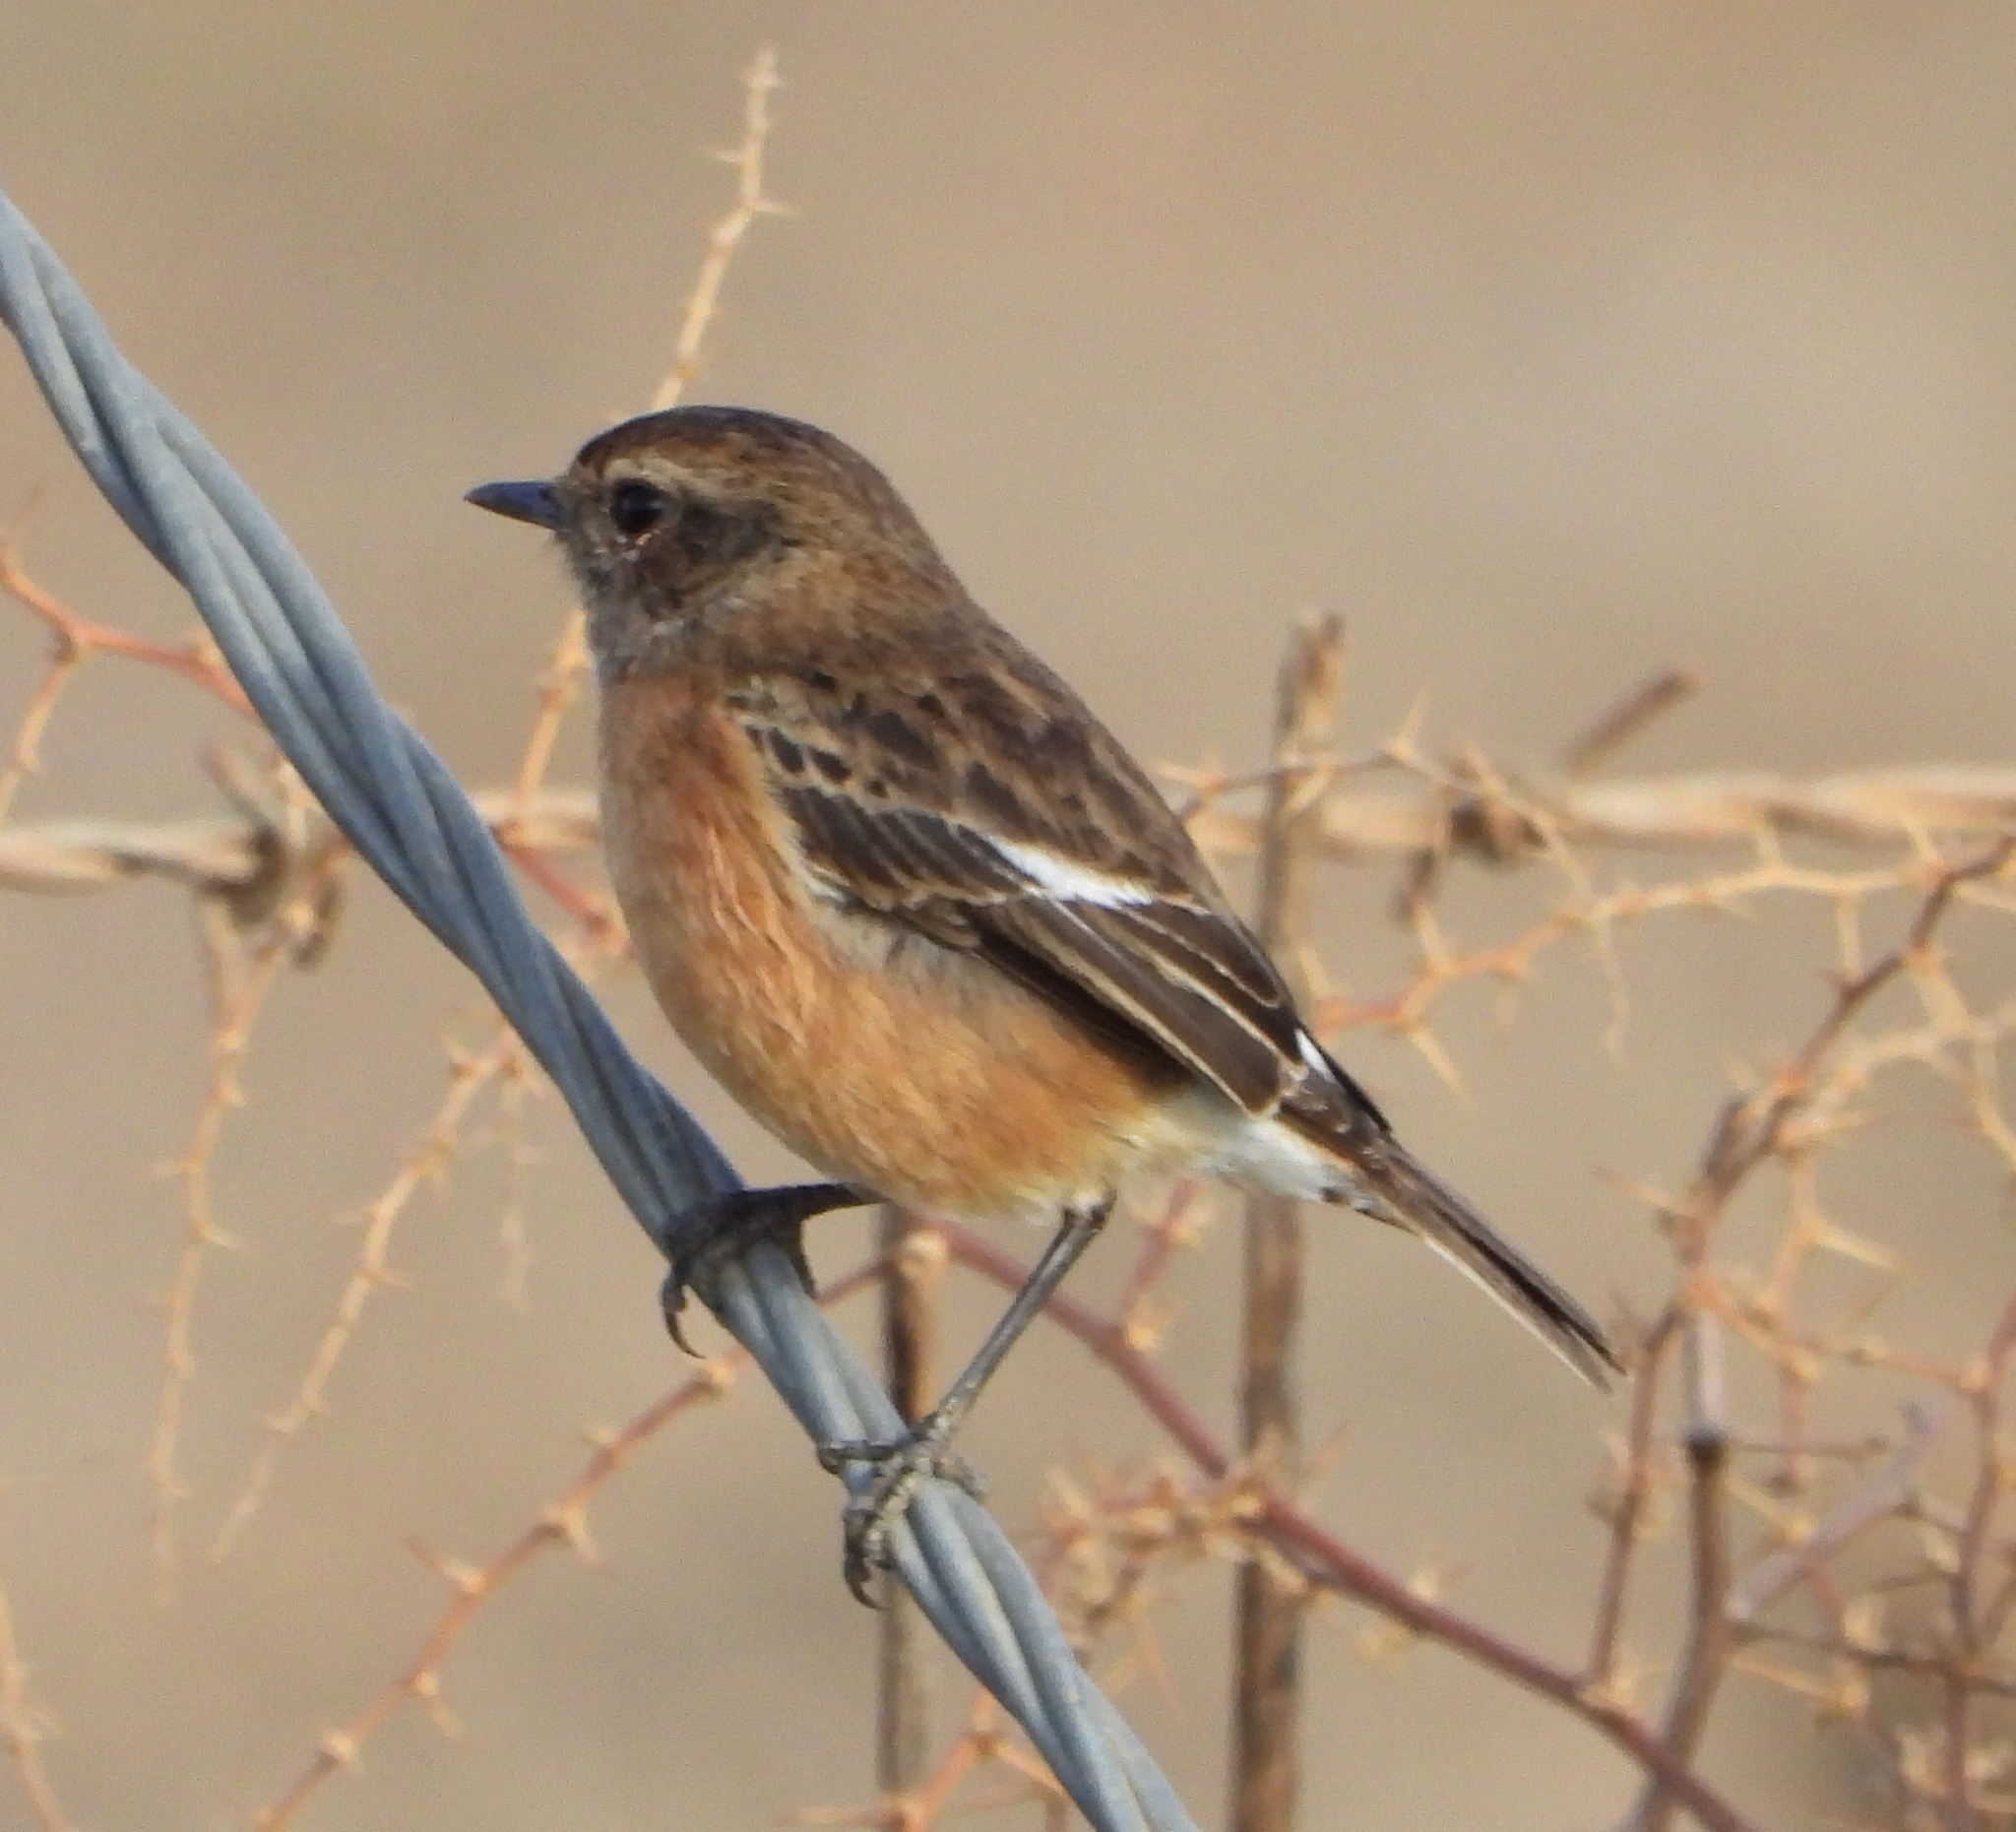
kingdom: Animalia
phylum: Chordata
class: Aves
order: Passeriformes
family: Muscicapidae
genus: Saxicola
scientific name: Saxicola torquatus
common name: African stonechat
